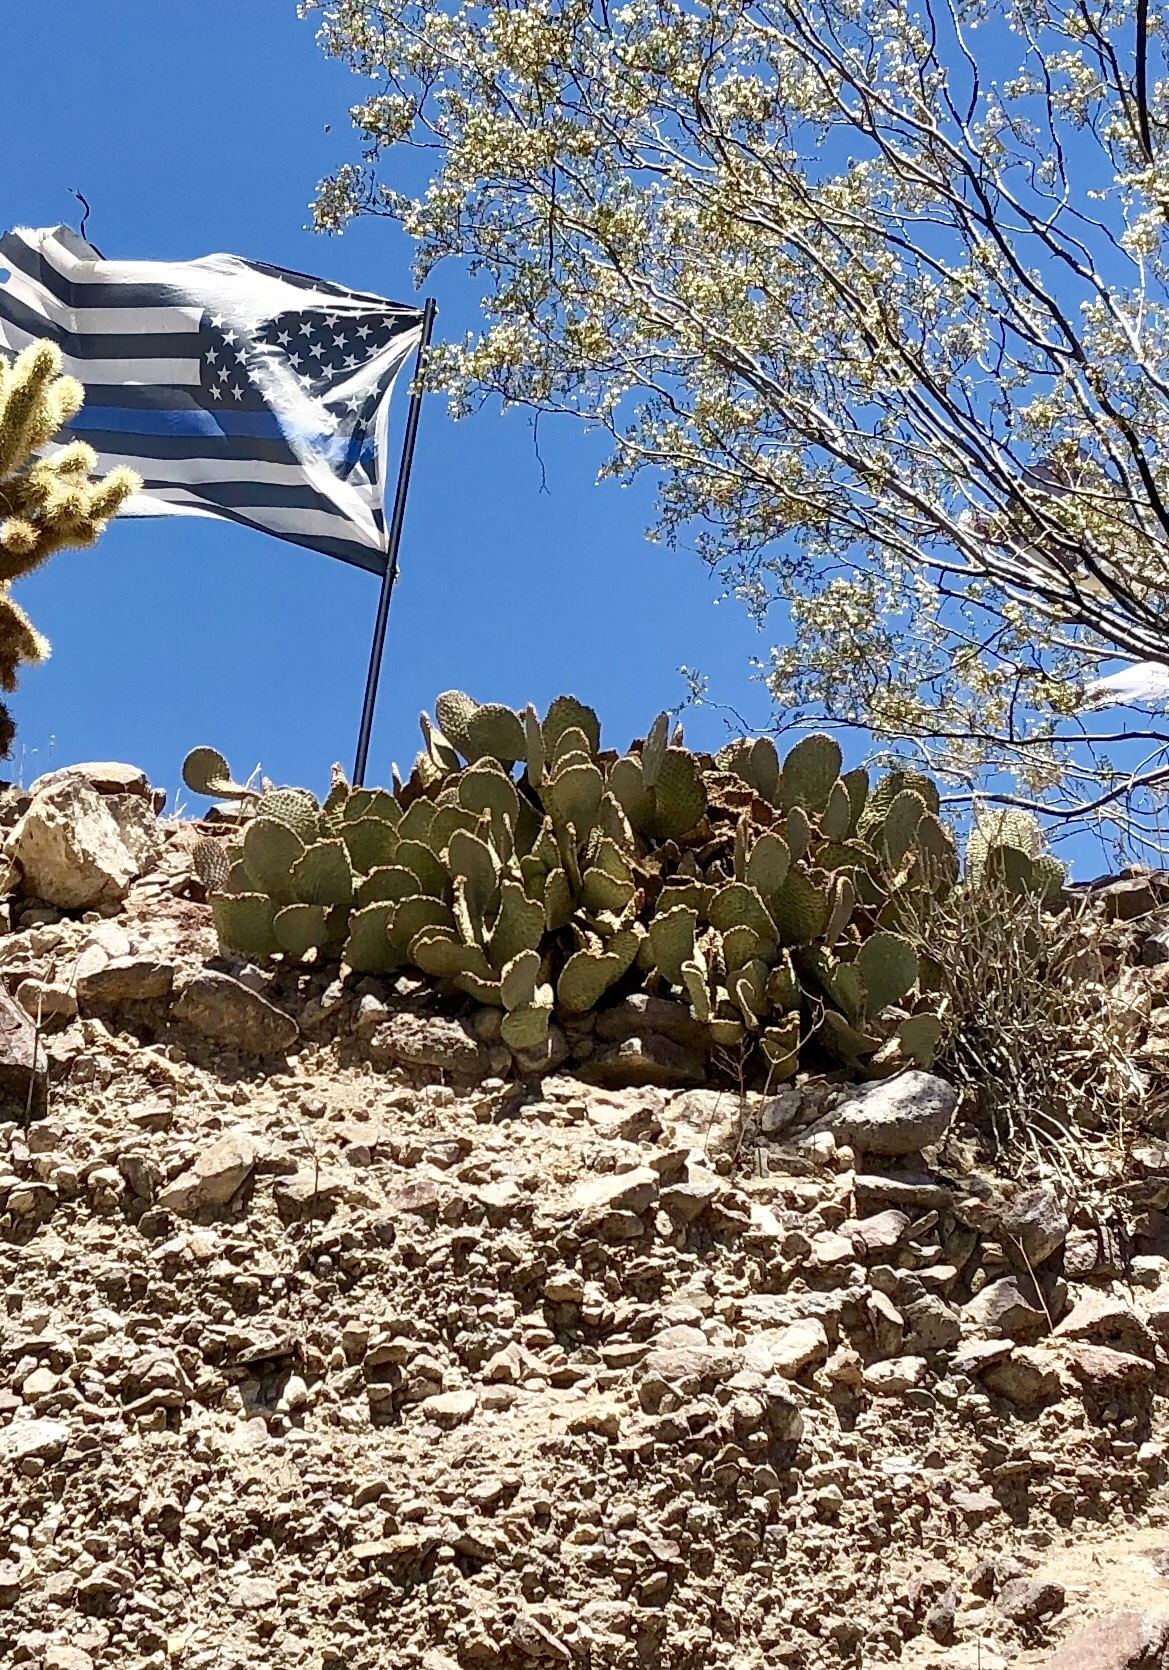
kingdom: Plantae
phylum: Tracheophyta
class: Magnoliopsida
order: Caryophyllales
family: Cactaceae
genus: Opuntia
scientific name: Opuntia basilaris
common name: Beavertail prickly-pear
